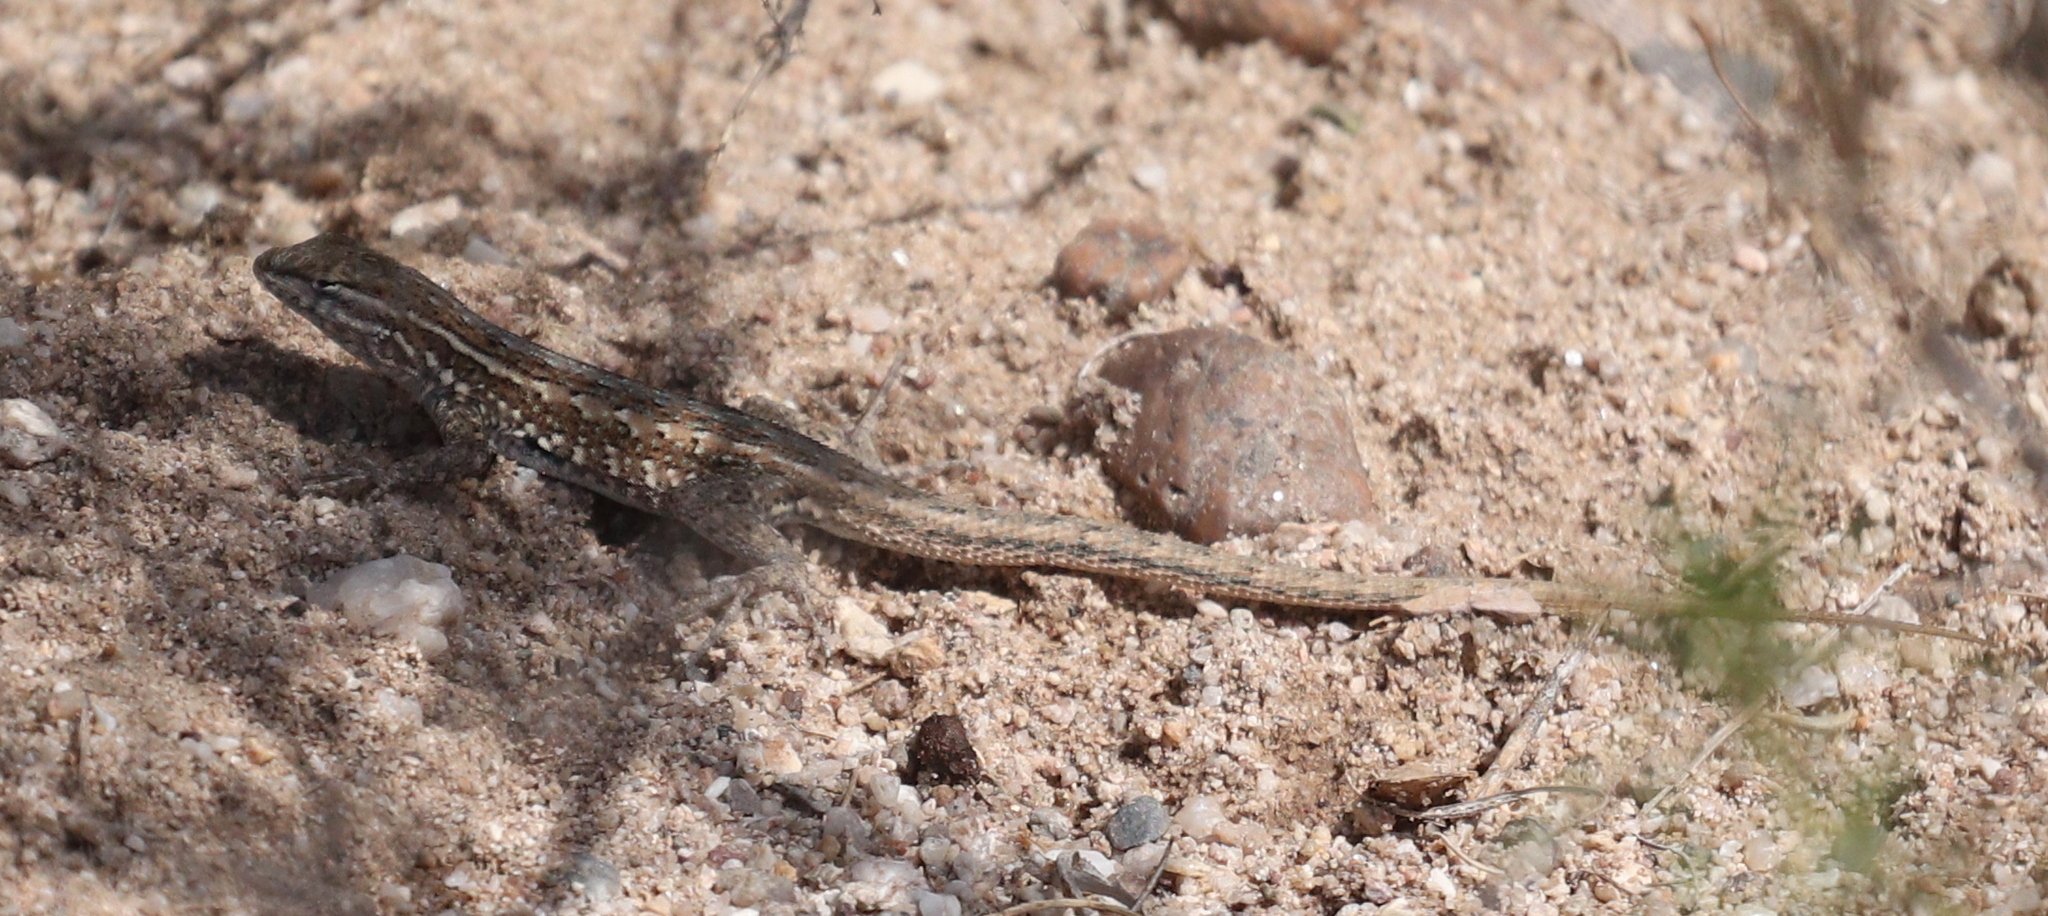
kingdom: Animalia
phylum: Chordata
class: Squamata
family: Phrynosomatidae
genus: Uta
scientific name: Uta stansburiana
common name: Side-blotched lizard
